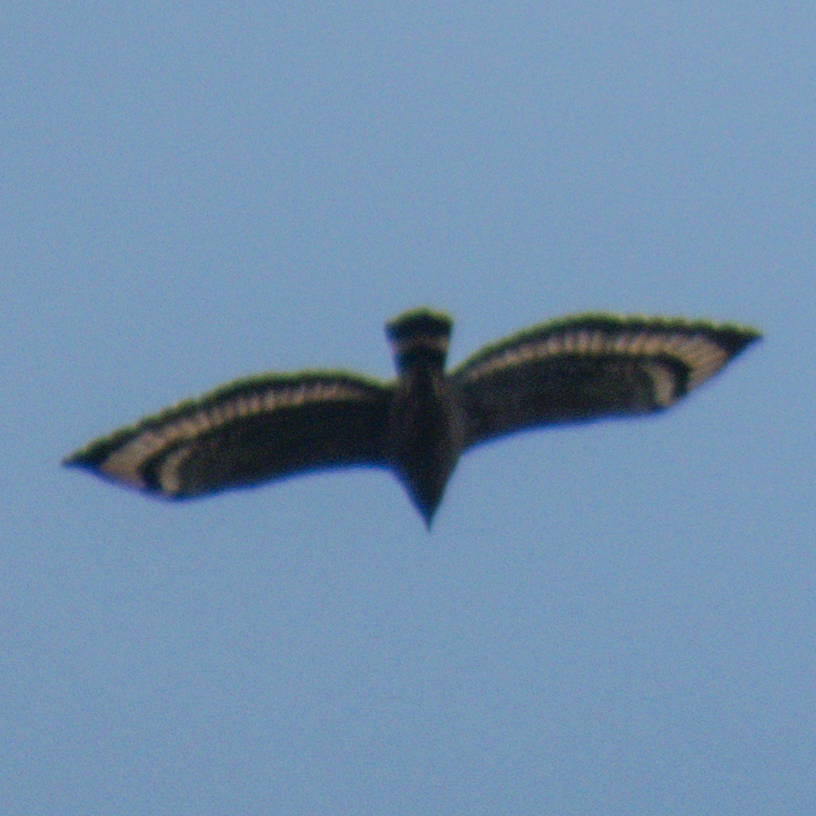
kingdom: Animalia
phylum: Chordata
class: Aves
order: Accipitriformes
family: Accipitridae
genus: Spilornis
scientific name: Spilornis cheela
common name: Crested serpent eagle
